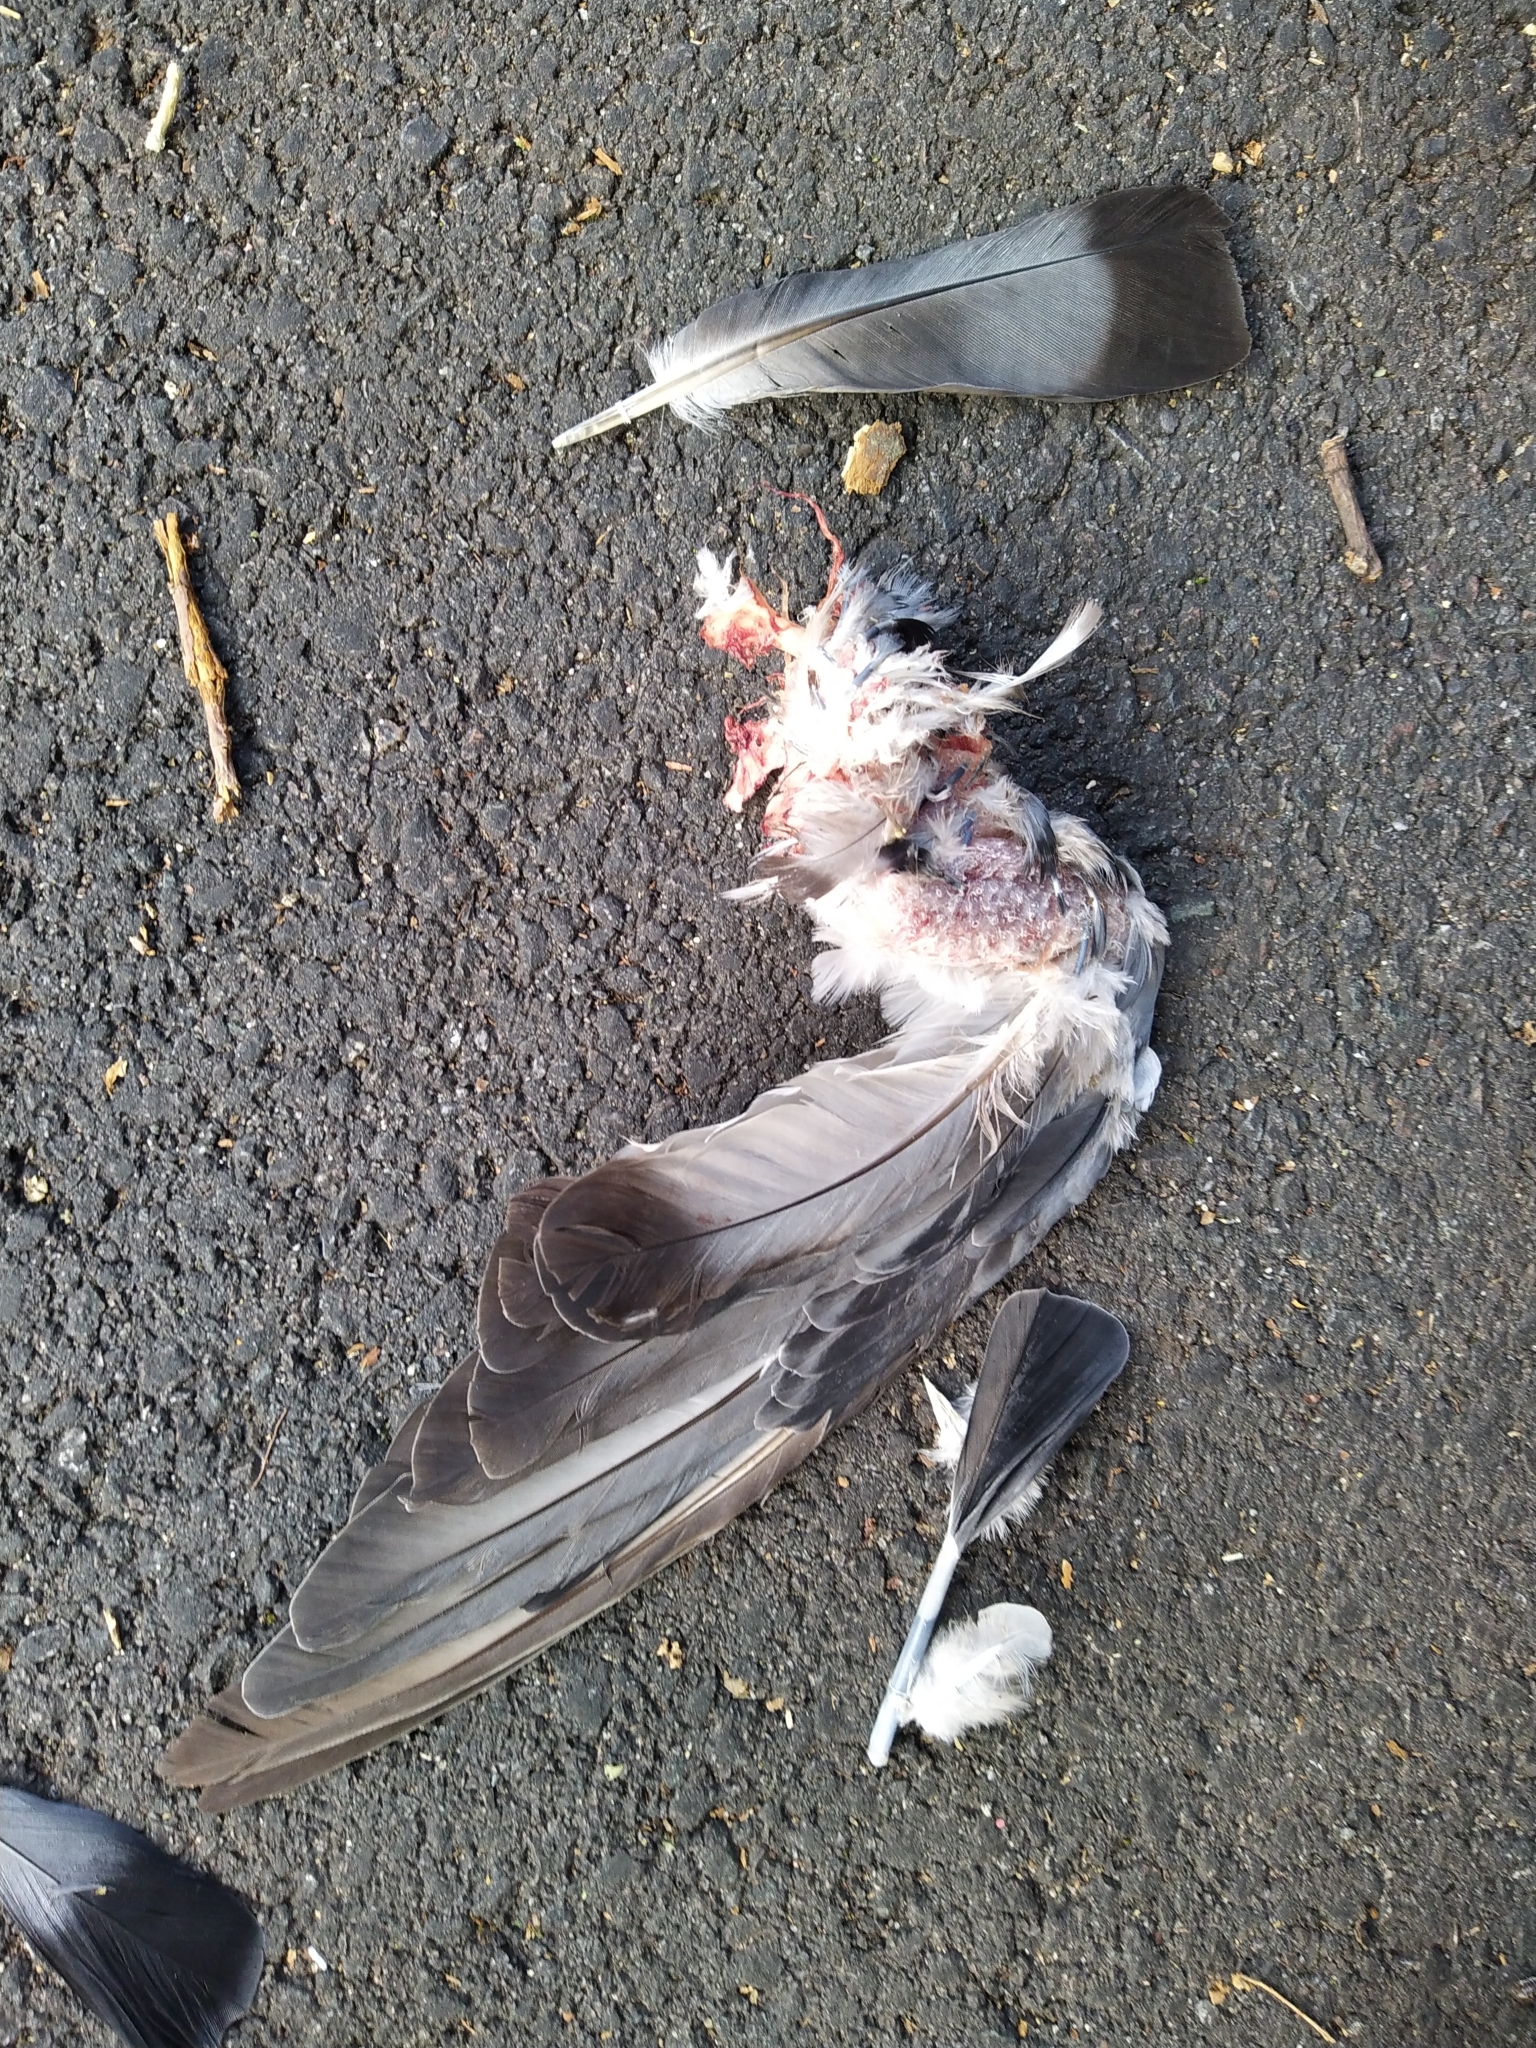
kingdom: Animalia
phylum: Chordata
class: Aves
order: Columbiformes
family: Columbidae
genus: Columba
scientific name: Columba livia
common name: Rock pigeon
